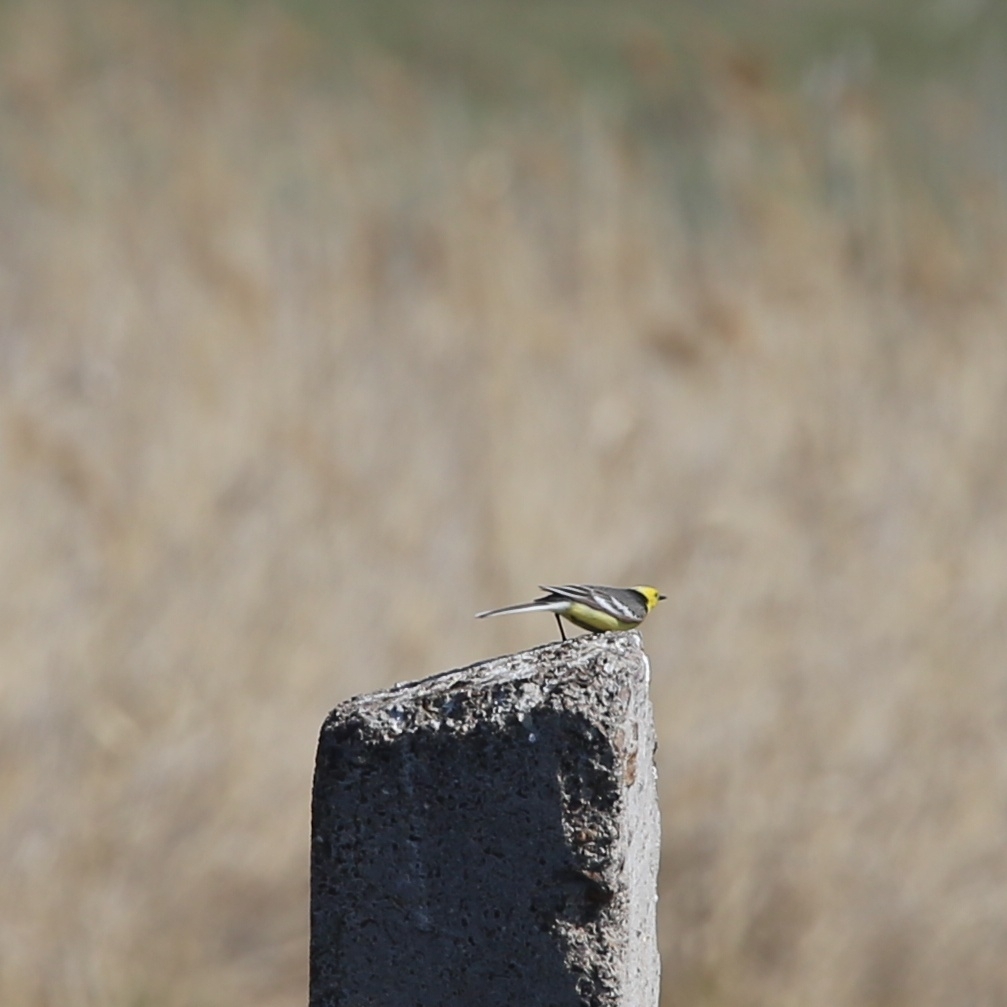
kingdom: Animalia
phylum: Chordata
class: Aves
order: Passeriformes
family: Motacillidae
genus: Motacilla
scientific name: Motacilla citreola
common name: Citrine wagtail
